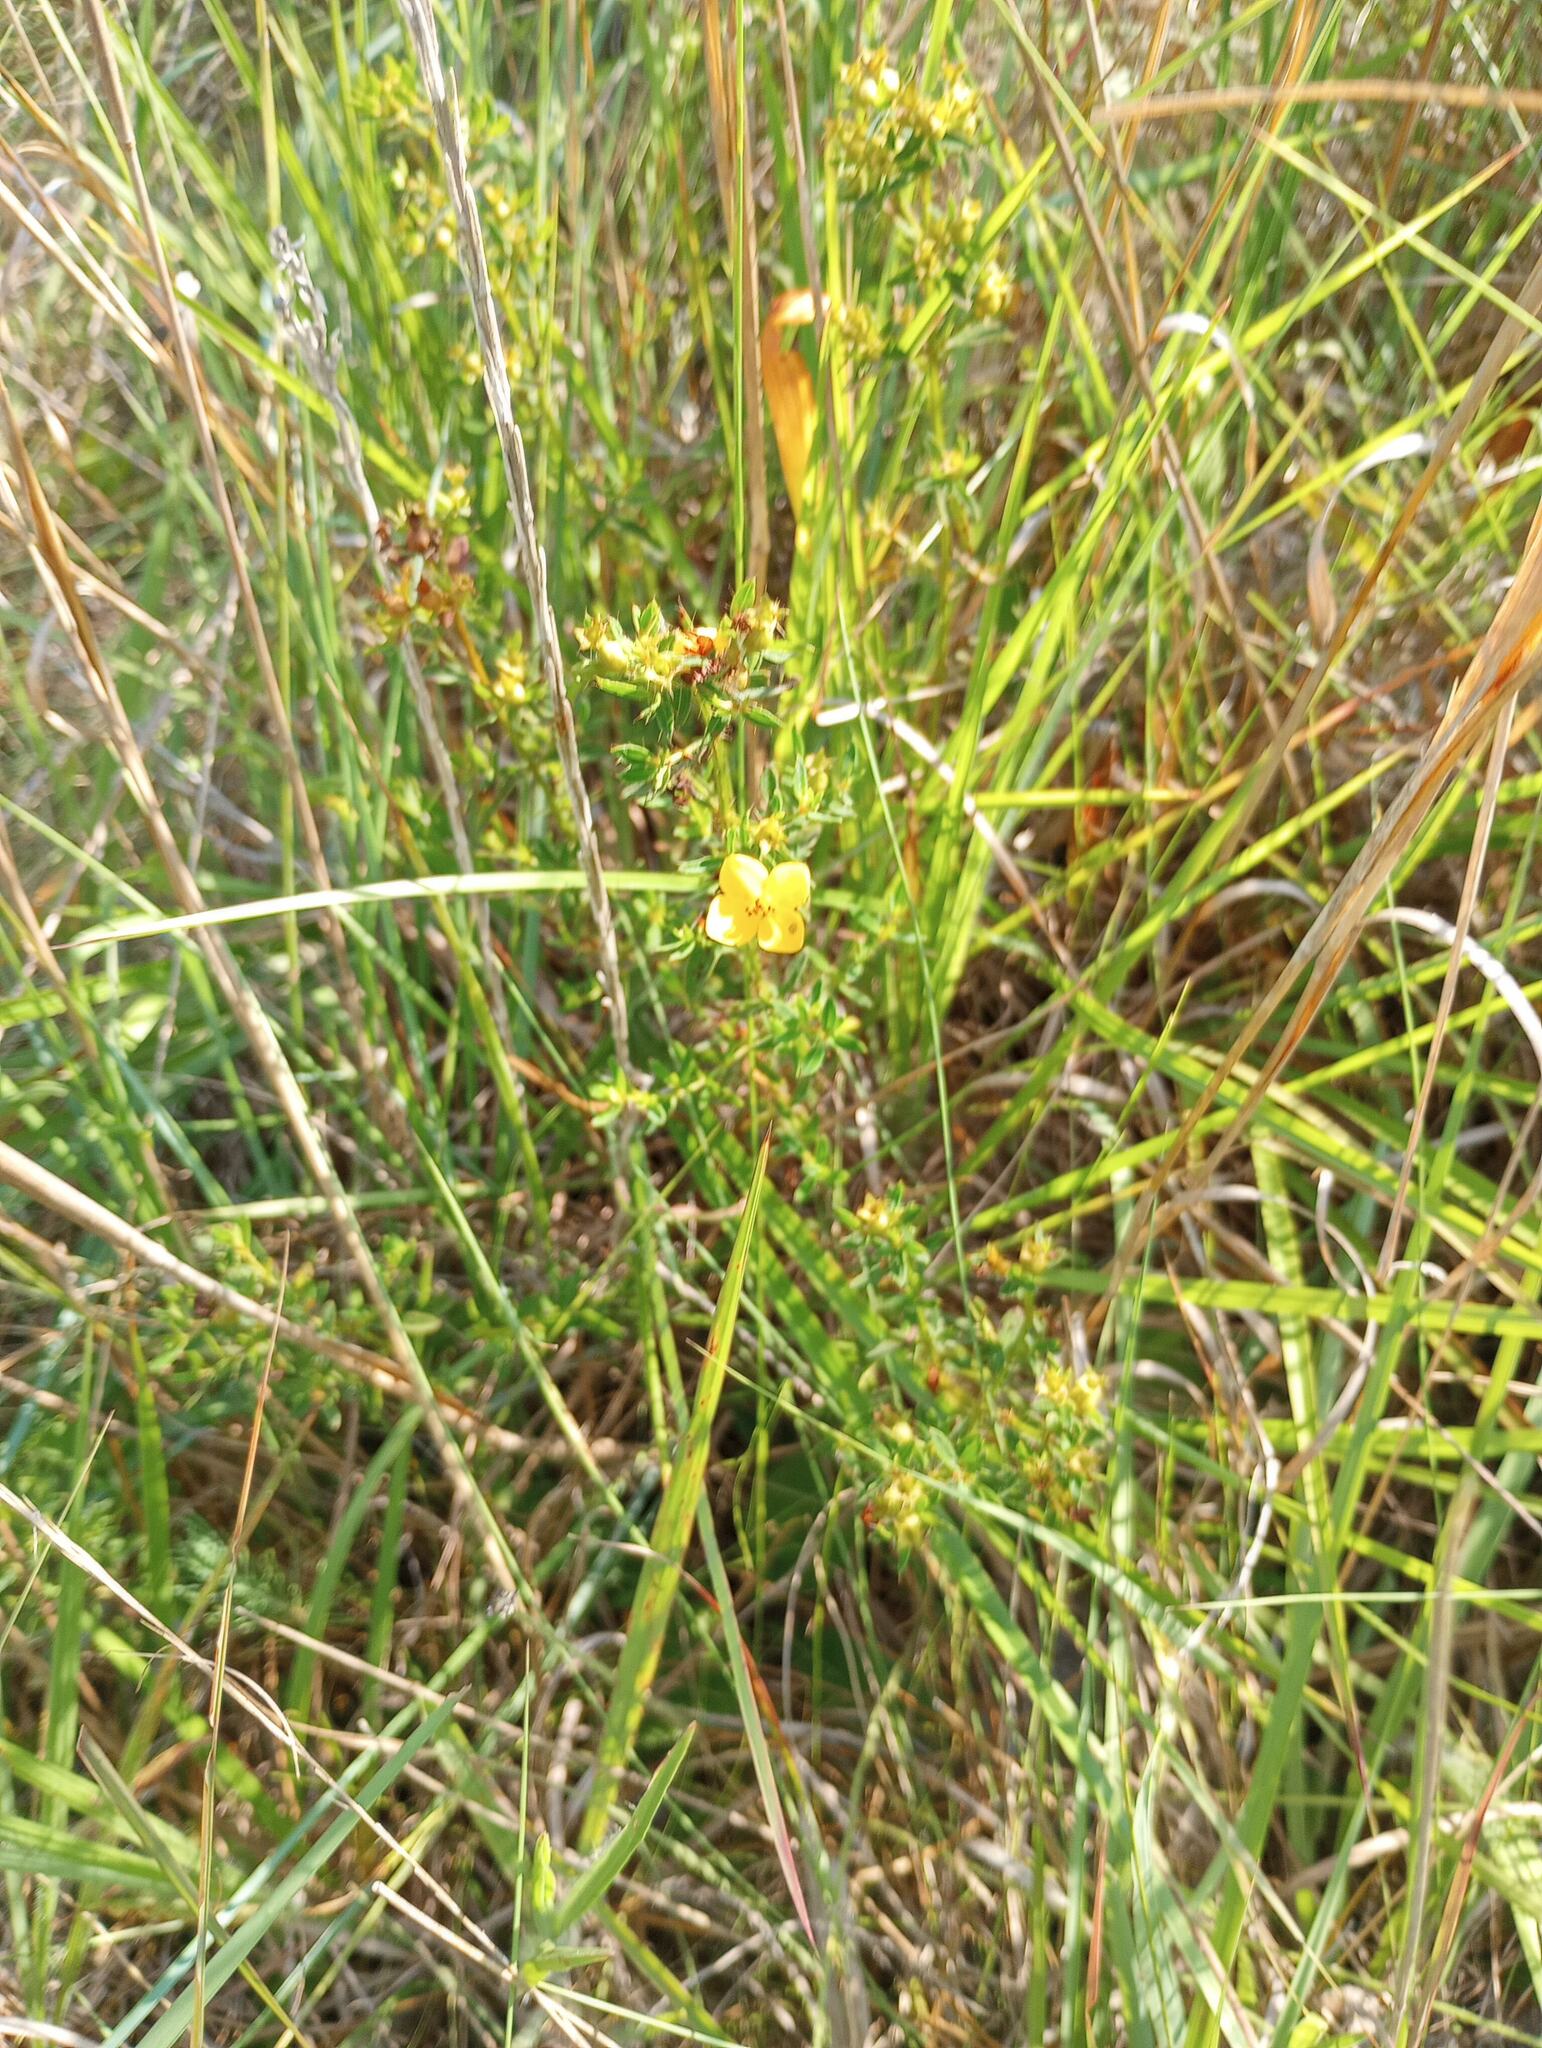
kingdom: Plantae
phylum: Tracheophyta
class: Magnoliopsida
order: Myrtales
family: Melastomataceae
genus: Rhexia
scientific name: Rhexia lutea
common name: Golden meadow-beauty
